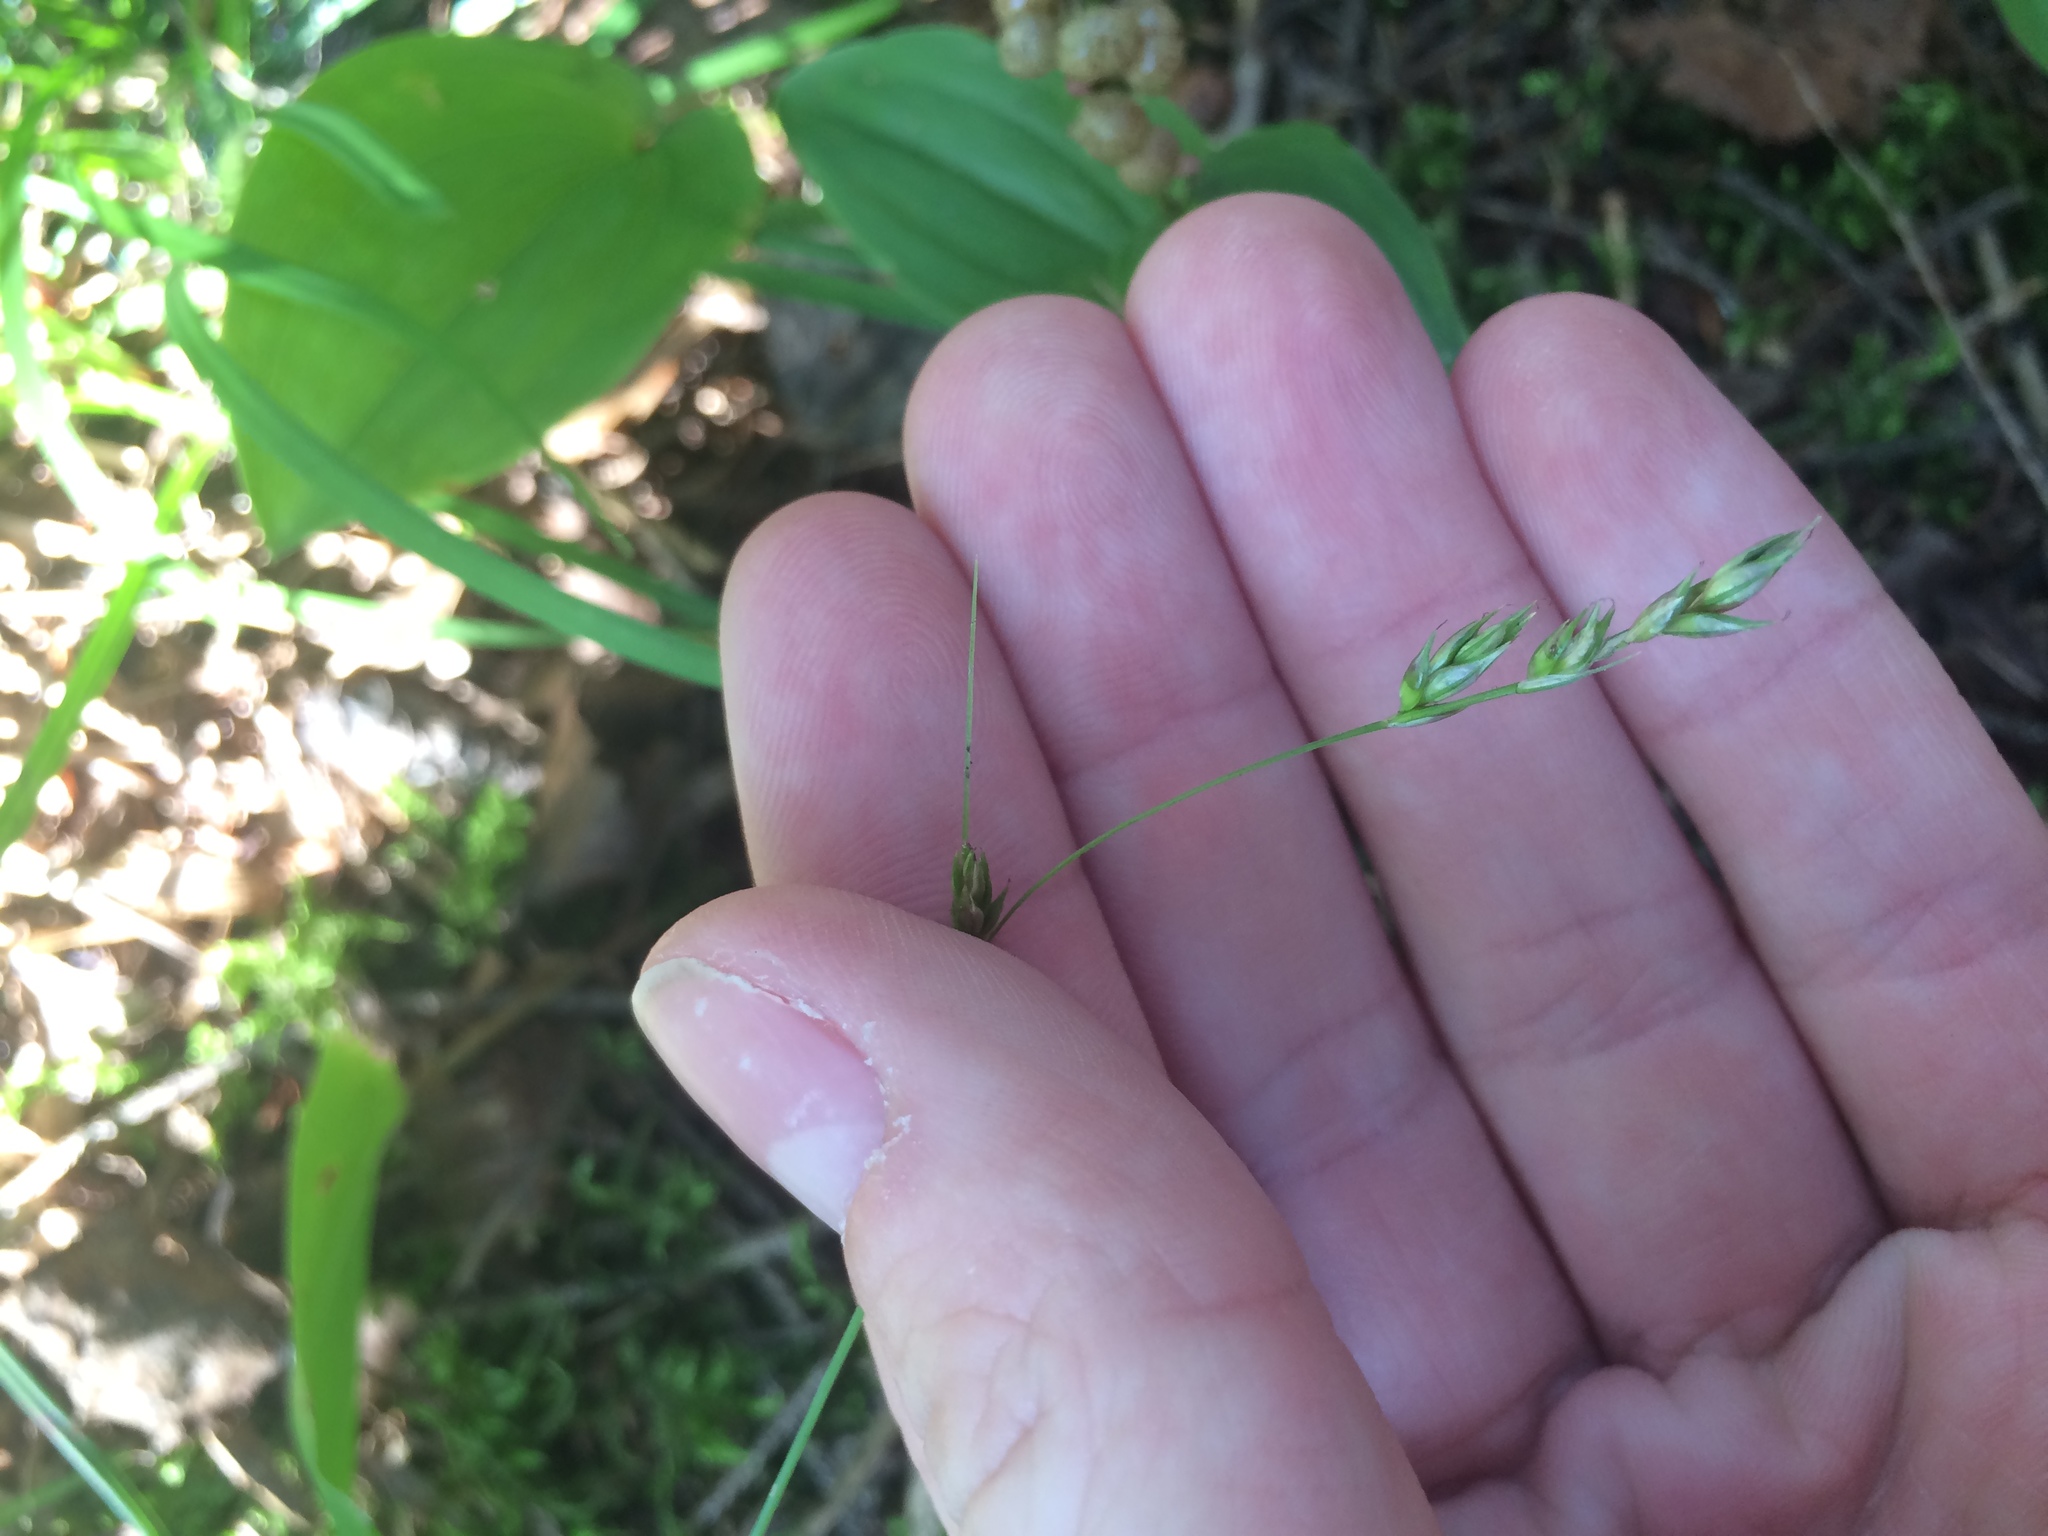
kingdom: Plantae
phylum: Tracheophyta
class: Liliopsida
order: Poales
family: Cyperaceae
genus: Carex
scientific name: Carex deweyana
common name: Dewey's sedge
